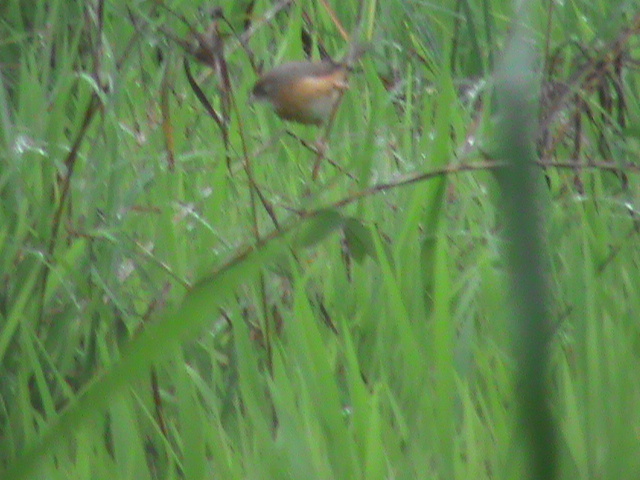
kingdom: Animalia
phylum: Chordata
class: Aves
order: Passeriformes
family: Timaliidae
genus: Dumetia
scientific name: Dumetia hyperythra
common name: Tawny-bellied babbler
